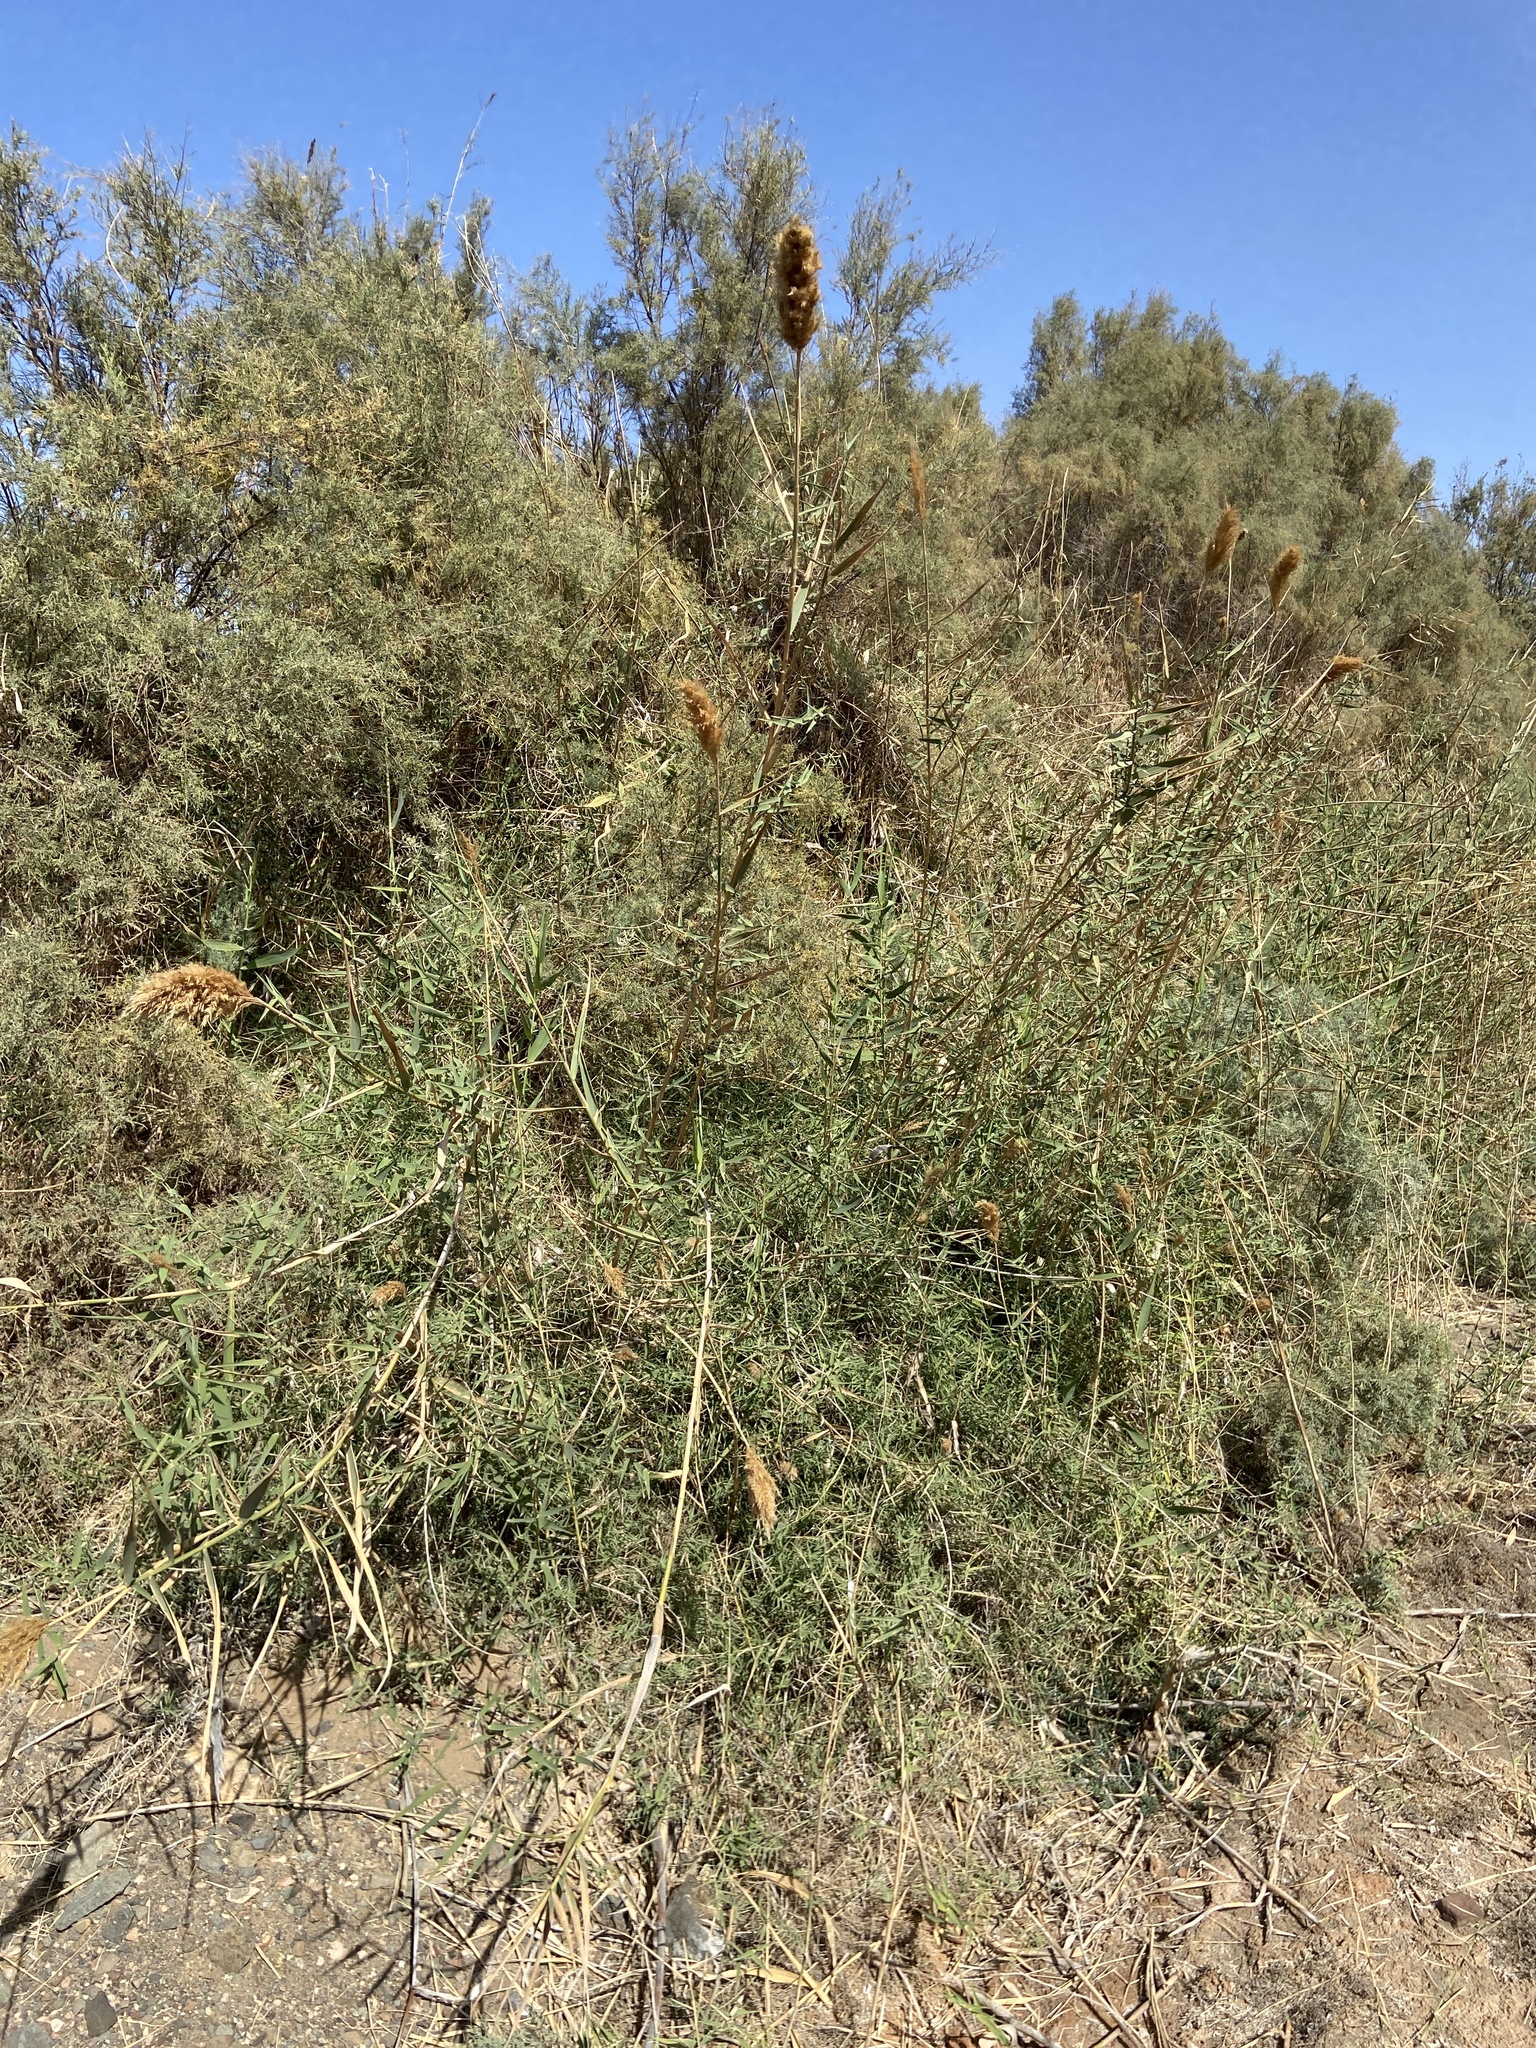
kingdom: Plantae
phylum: Tracheophyta
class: Liliopsida
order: Poales
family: Poaceae
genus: Arundo
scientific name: Arundo donax
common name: Giant reed
